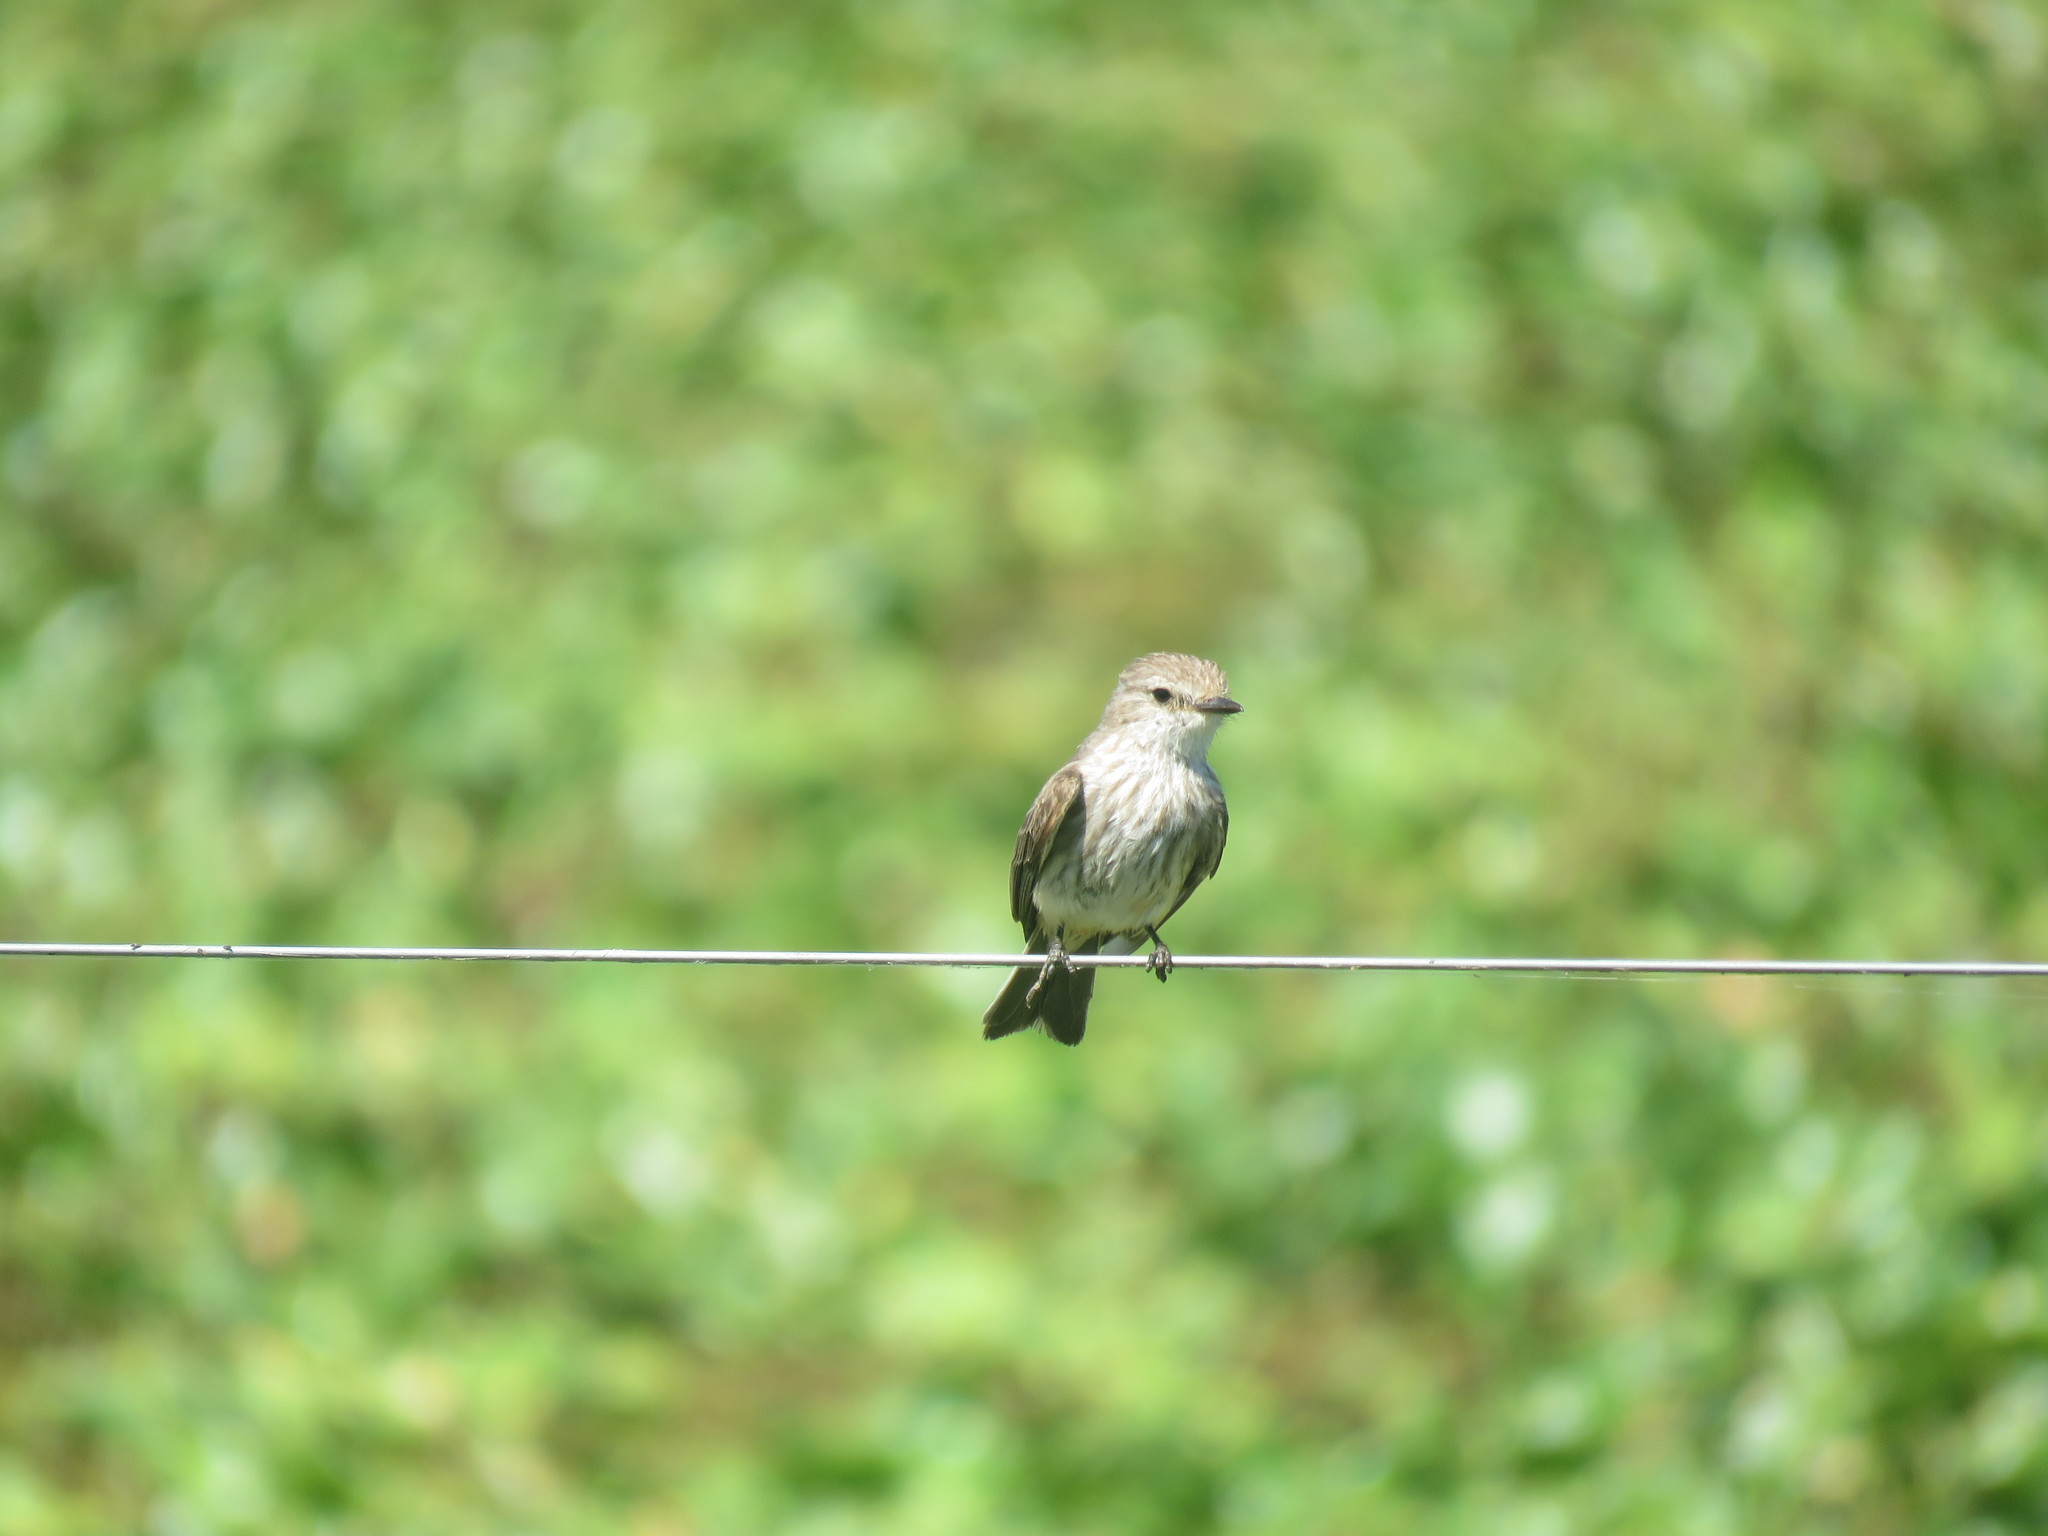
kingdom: Animalia
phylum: Chordata
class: Aves
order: Passeriformes
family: Tyrannidae
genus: Pyrocephalus
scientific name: Pyrocephalus rubinus
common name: Vermilion flycatcher
